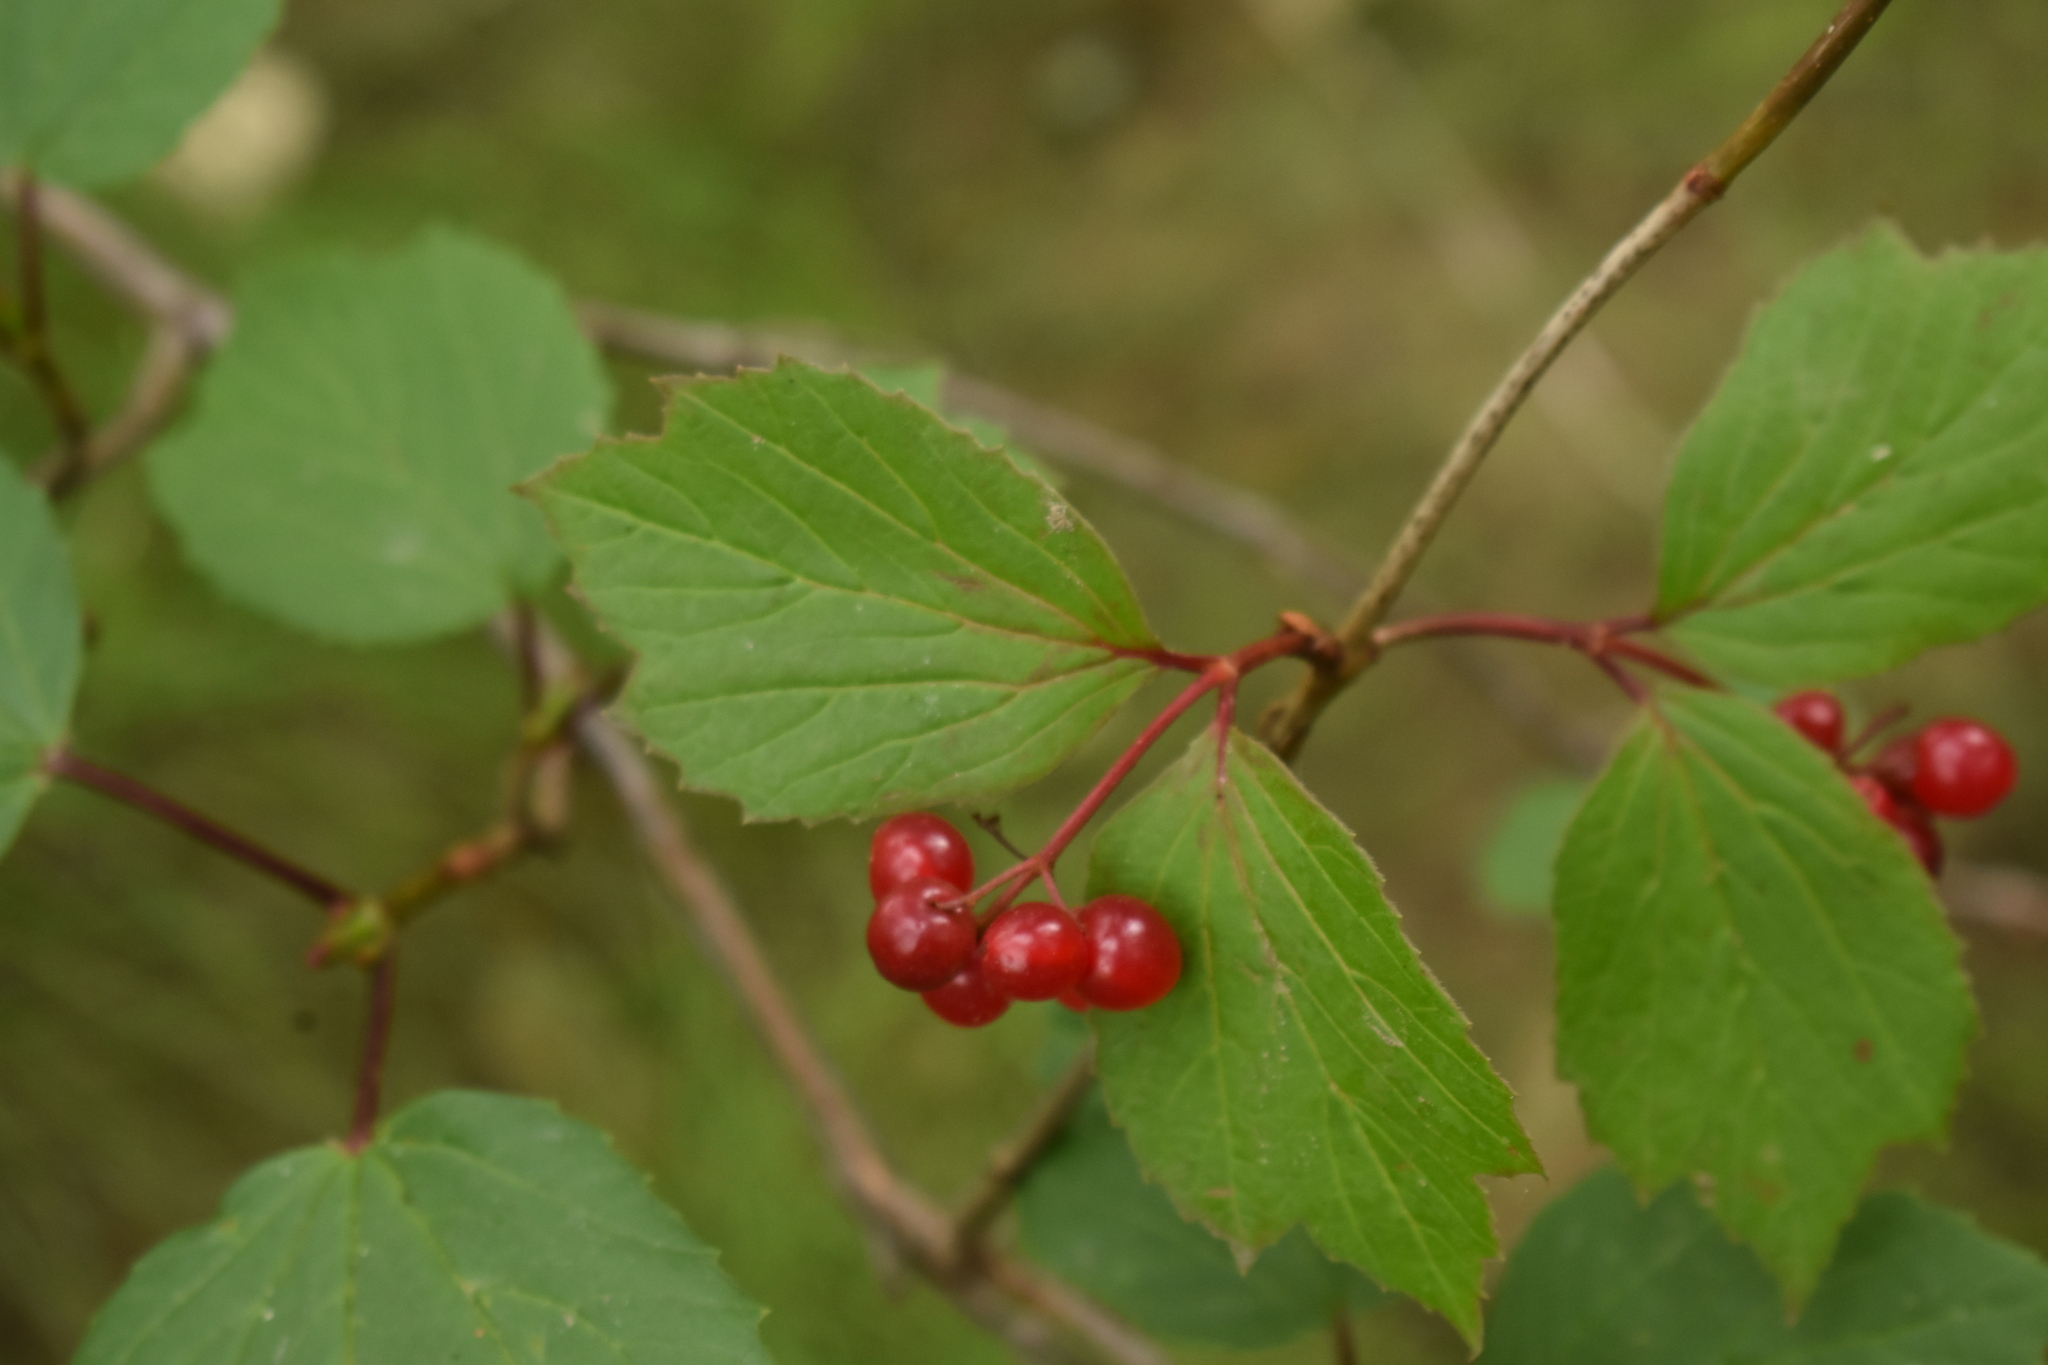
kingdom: Plantae
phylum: Tracheophyta
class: Magnoliopsida
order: Dipsacales
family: Viburnaceae
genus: Viburnum
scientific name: Viburnum edule
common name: Mooseberry
